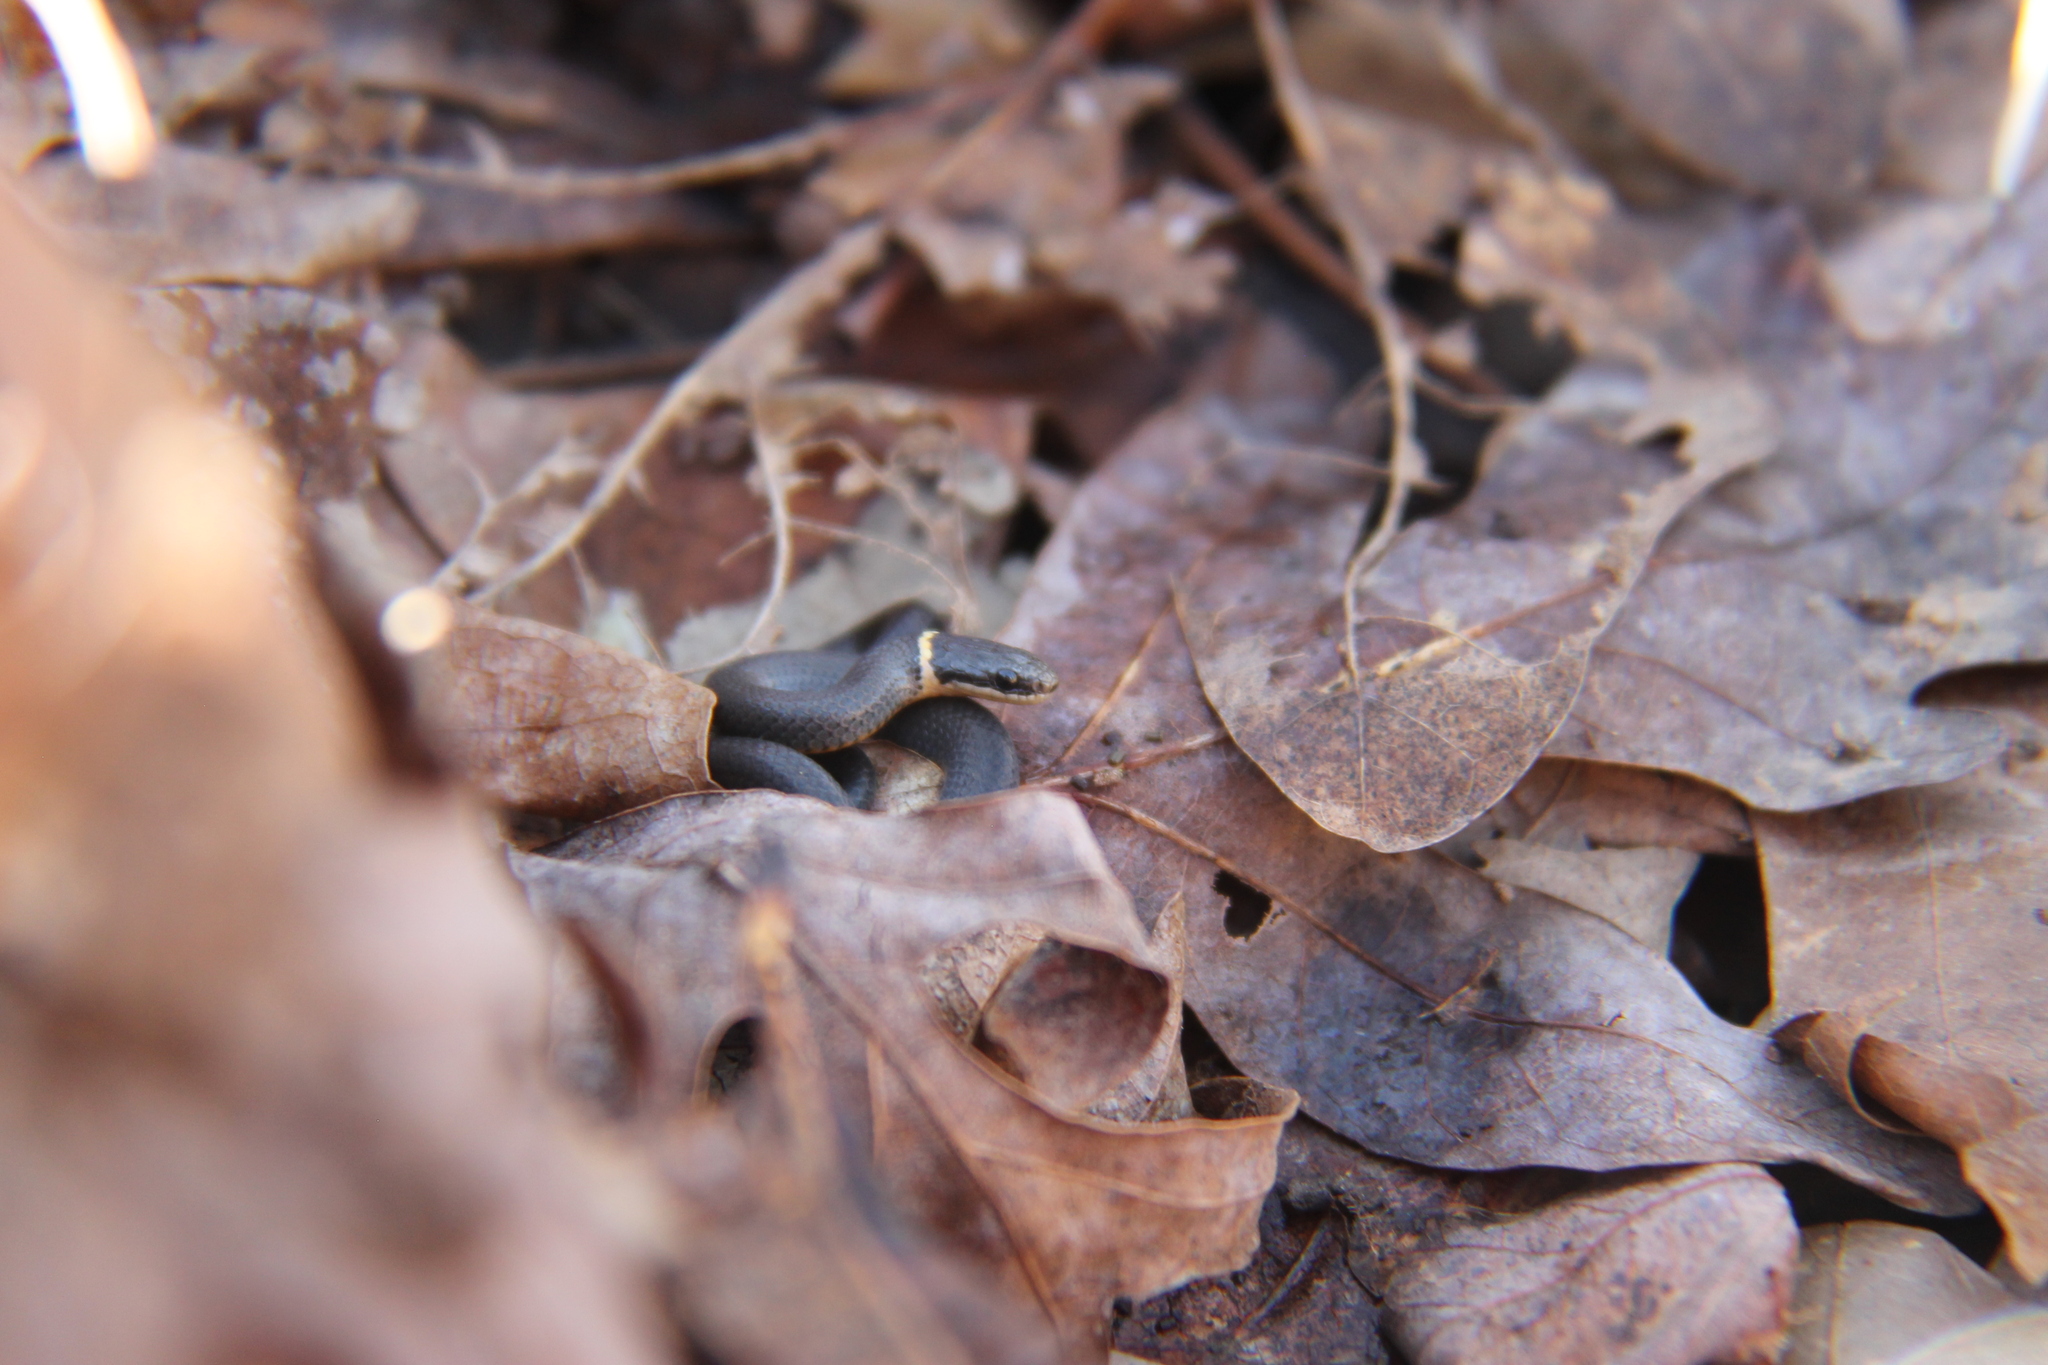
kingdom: Animalia
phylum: Chordata
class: Squamata
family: Colubridae
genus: Diadophis
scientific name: Diadophis punctatus
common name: Ringneck snake
